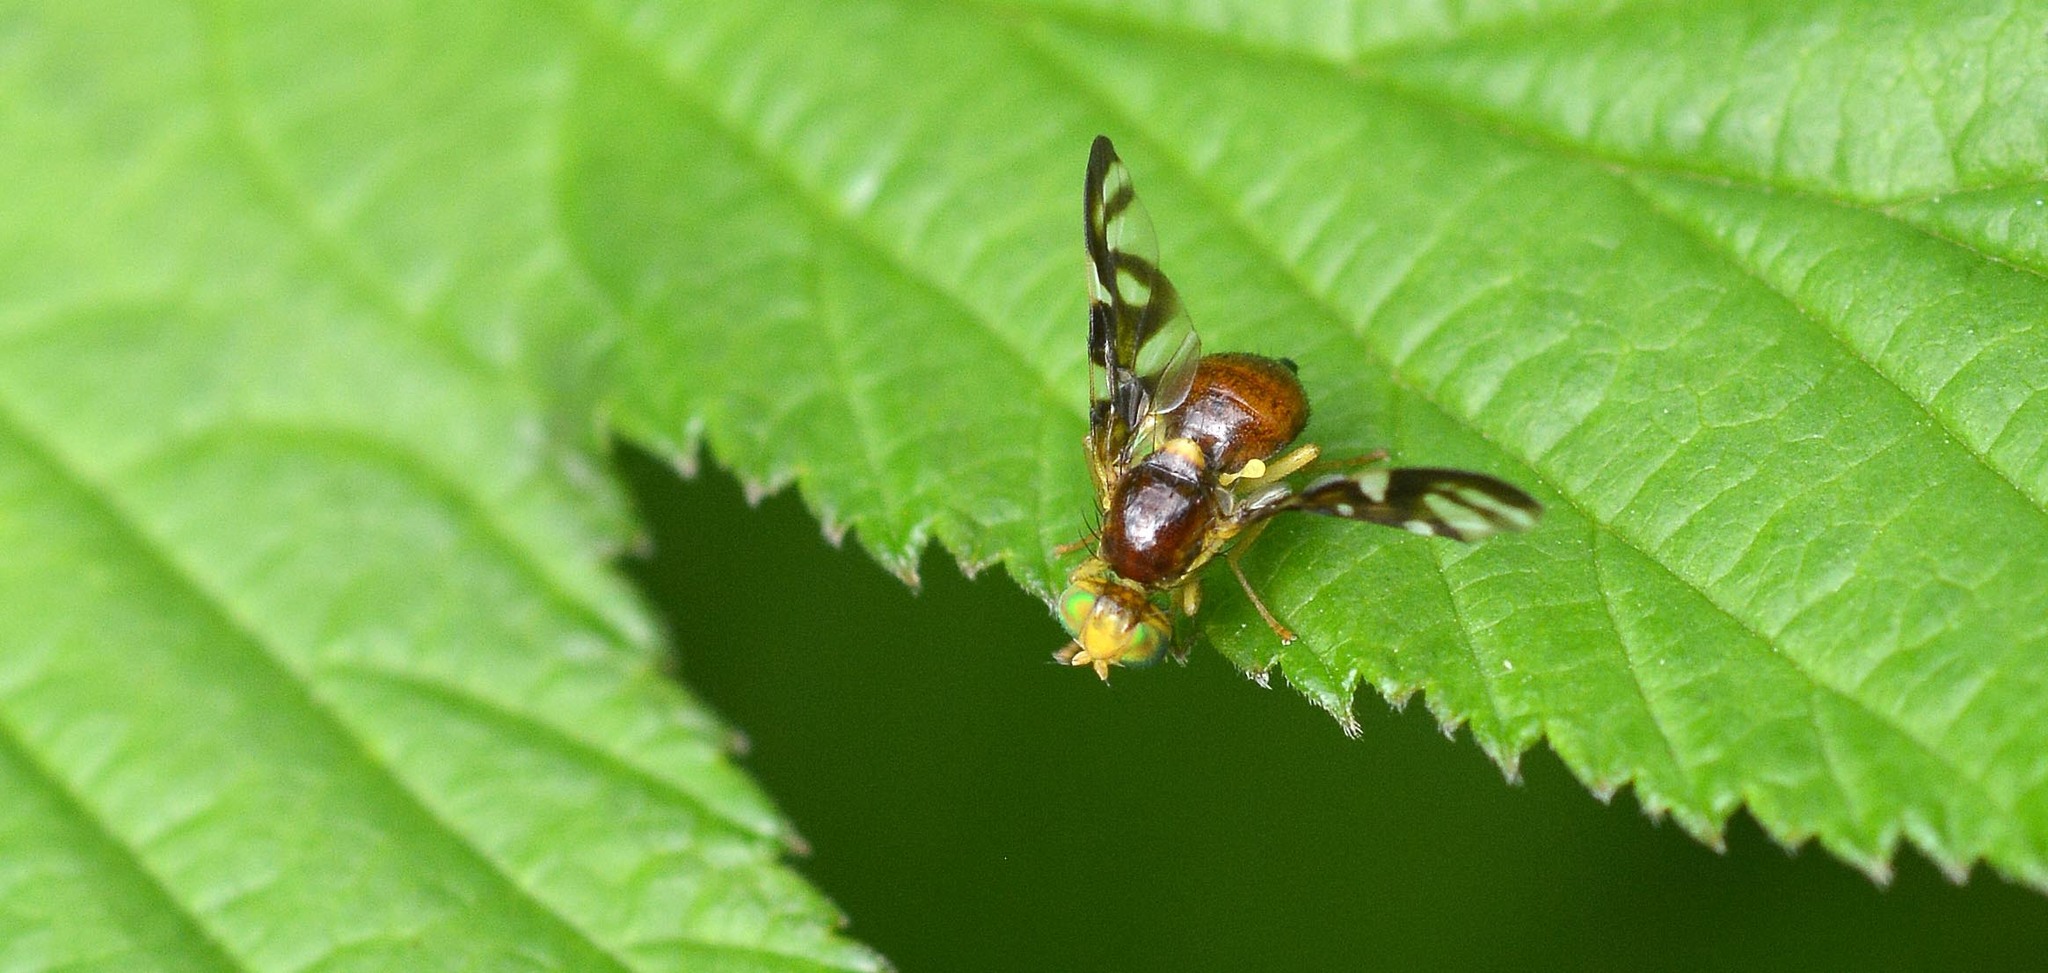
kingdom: Animalia
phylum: Arthropoda
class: Insecta
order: Diptera
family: Tephritidae
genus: Euleia
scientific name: Euleia heraclei
